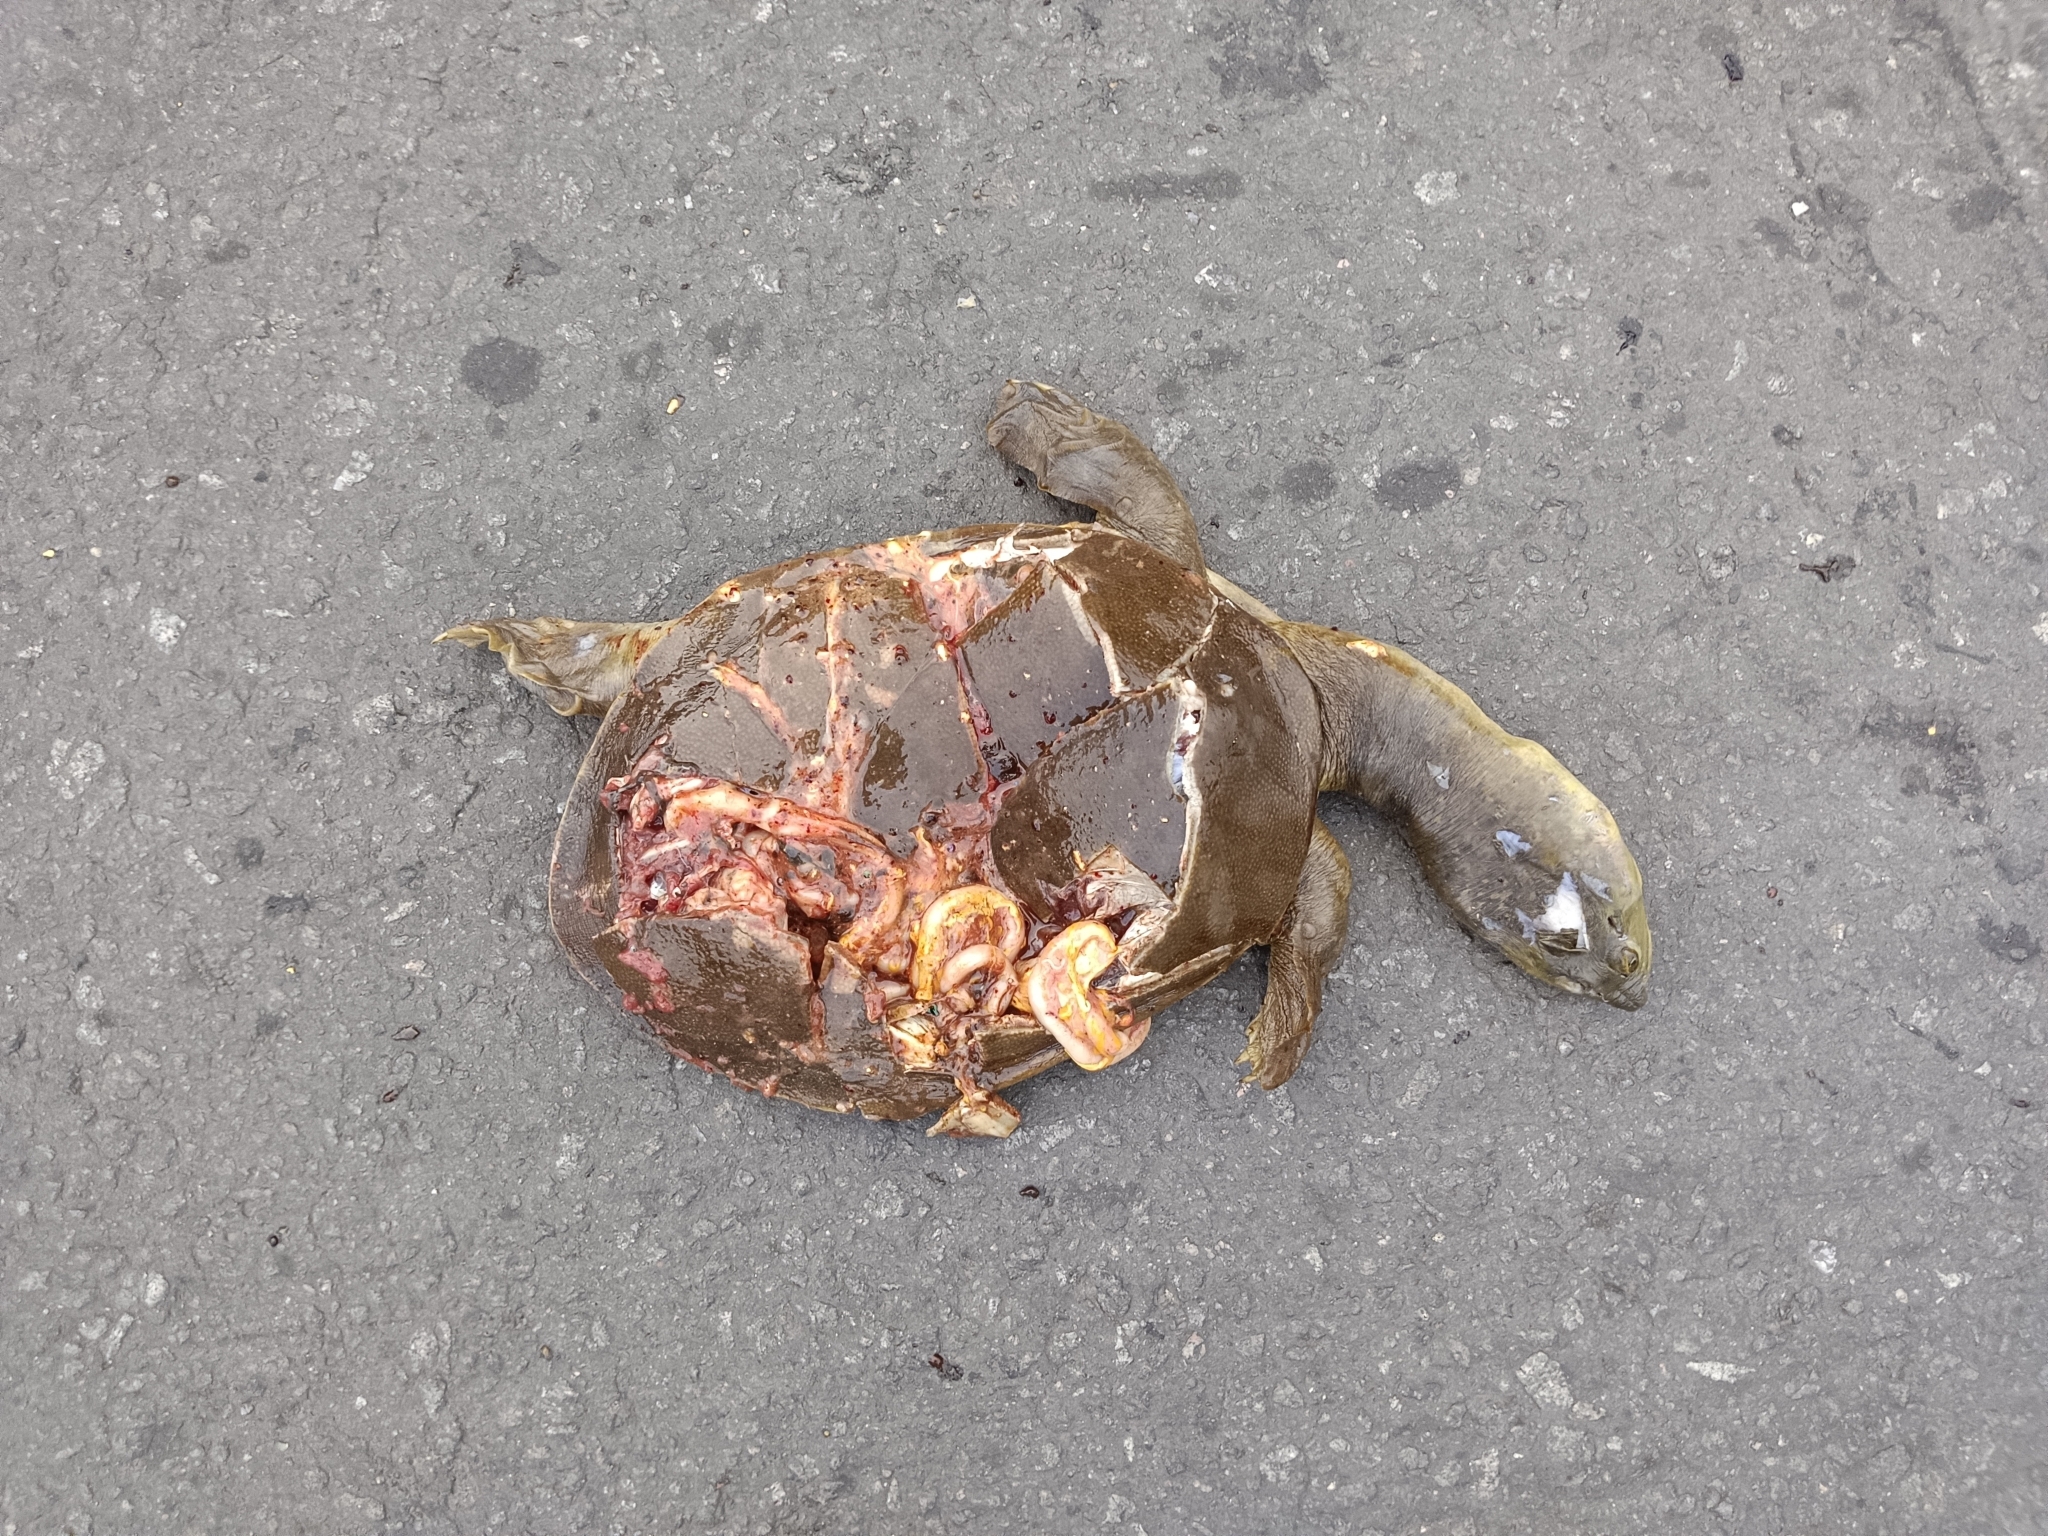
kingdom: Animalia
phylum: Chordata
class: Testudines
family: Trionychidae
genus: Lissemys
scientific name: Lissemys punctata
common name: Indian flap-shelled turtle
